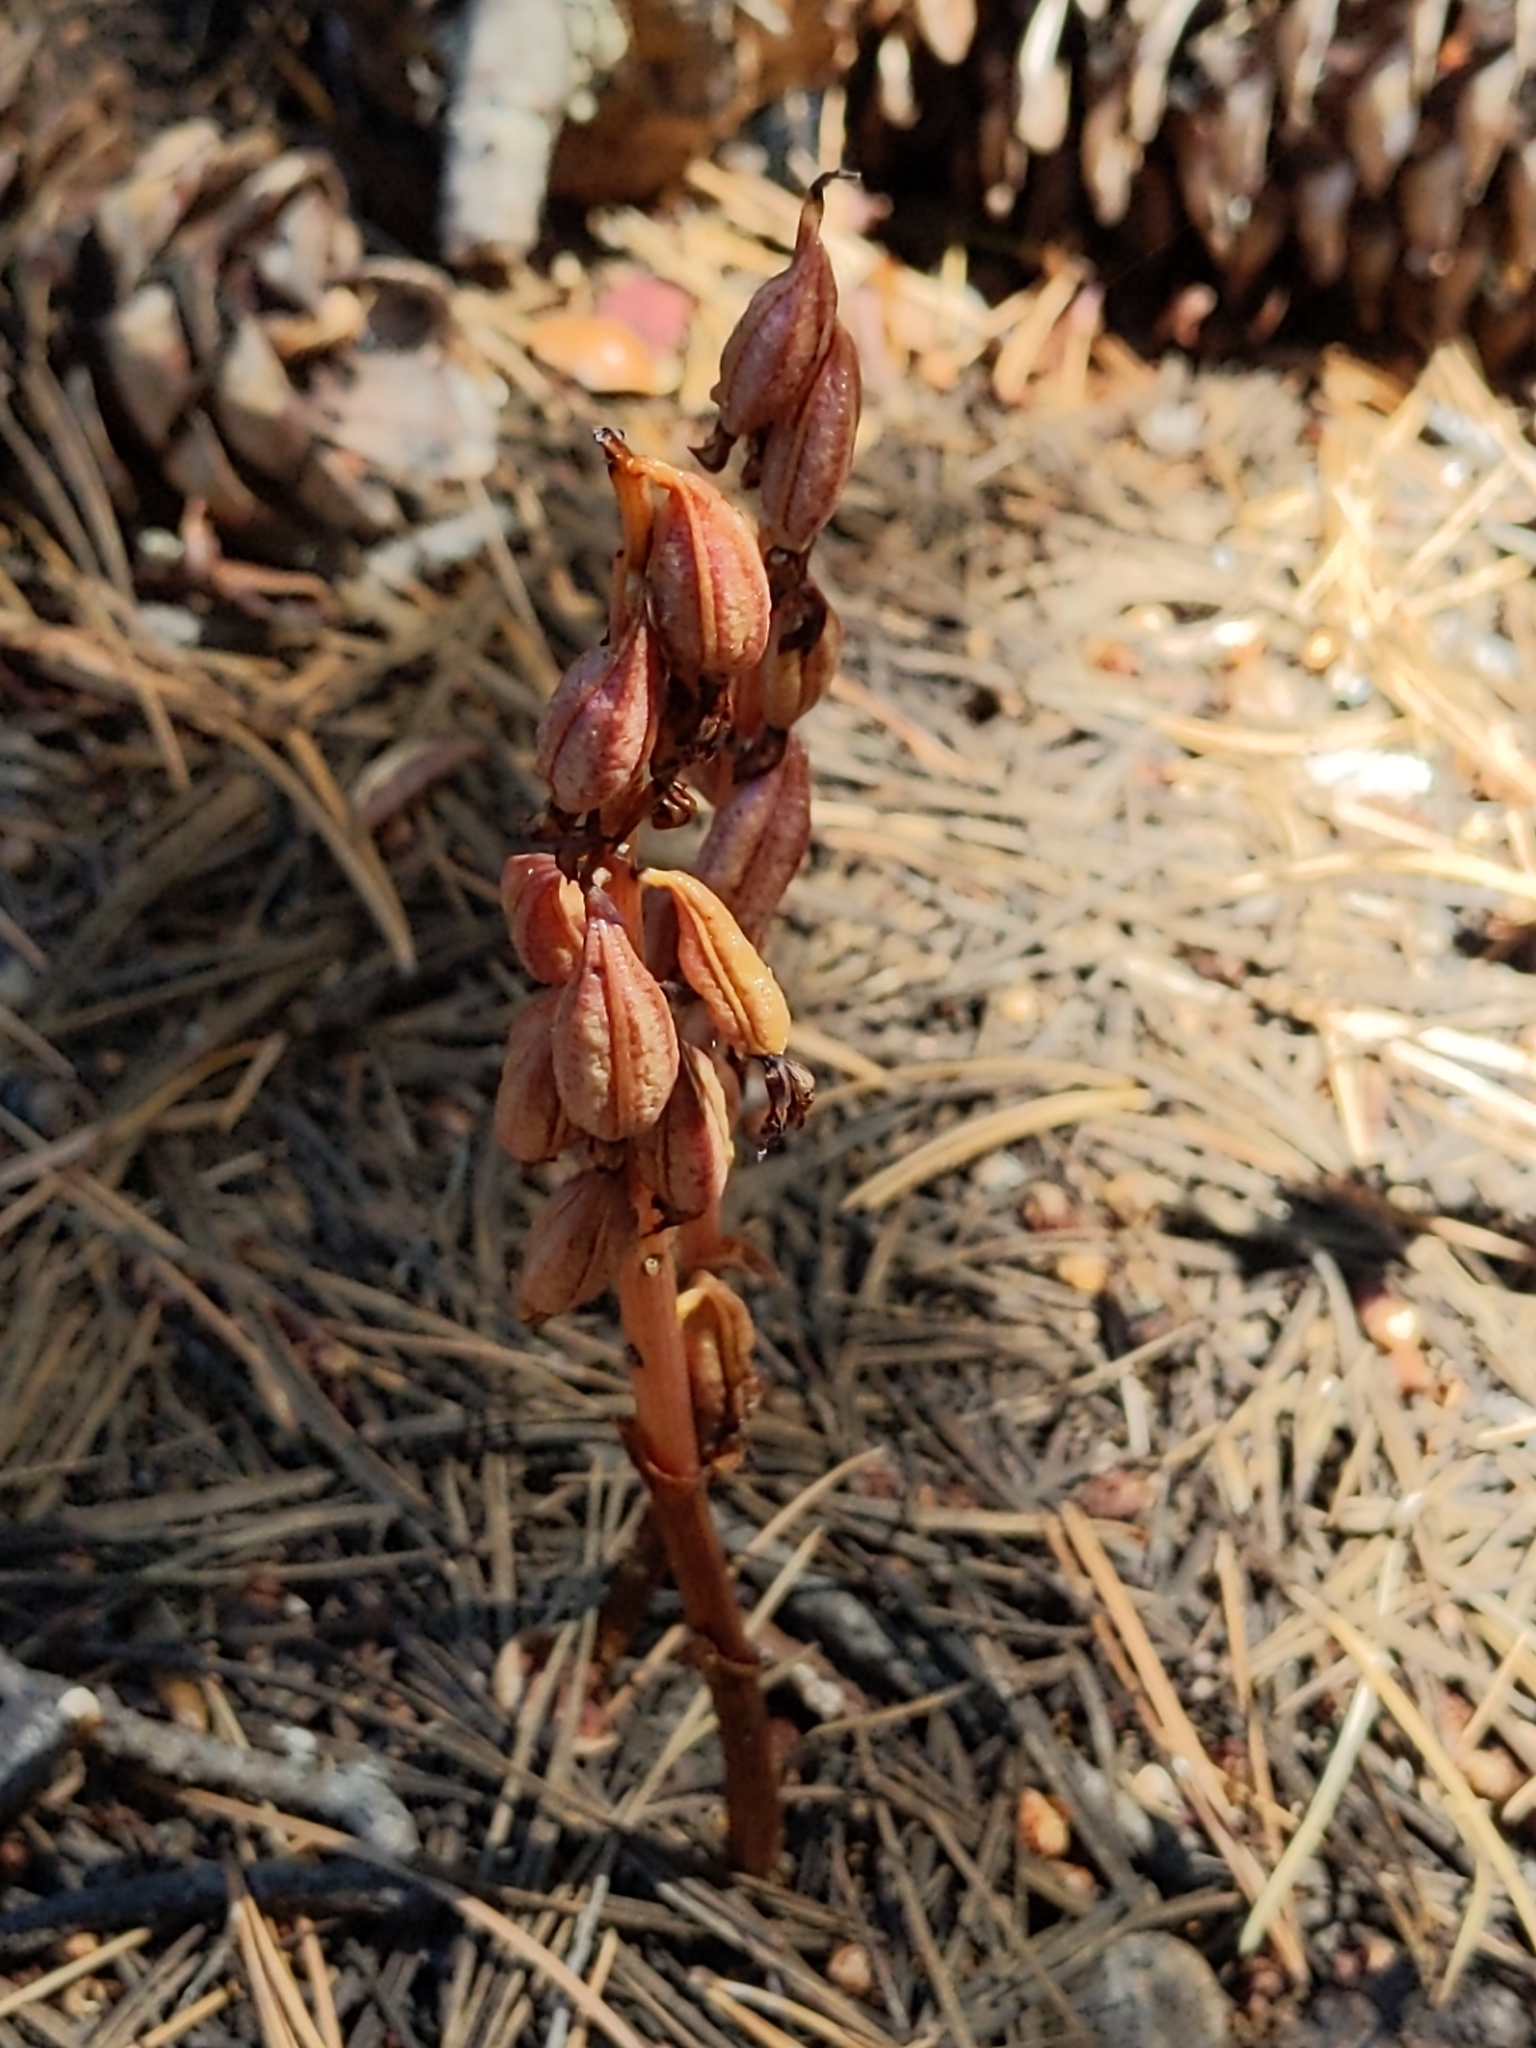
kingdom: Plantae
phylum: Tracheophyta
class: Liliopsida
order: Asparagales
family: Orchidaceae
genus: Corallorhiza
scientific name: Corallorhiza maculata
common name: Spotted coralroot
